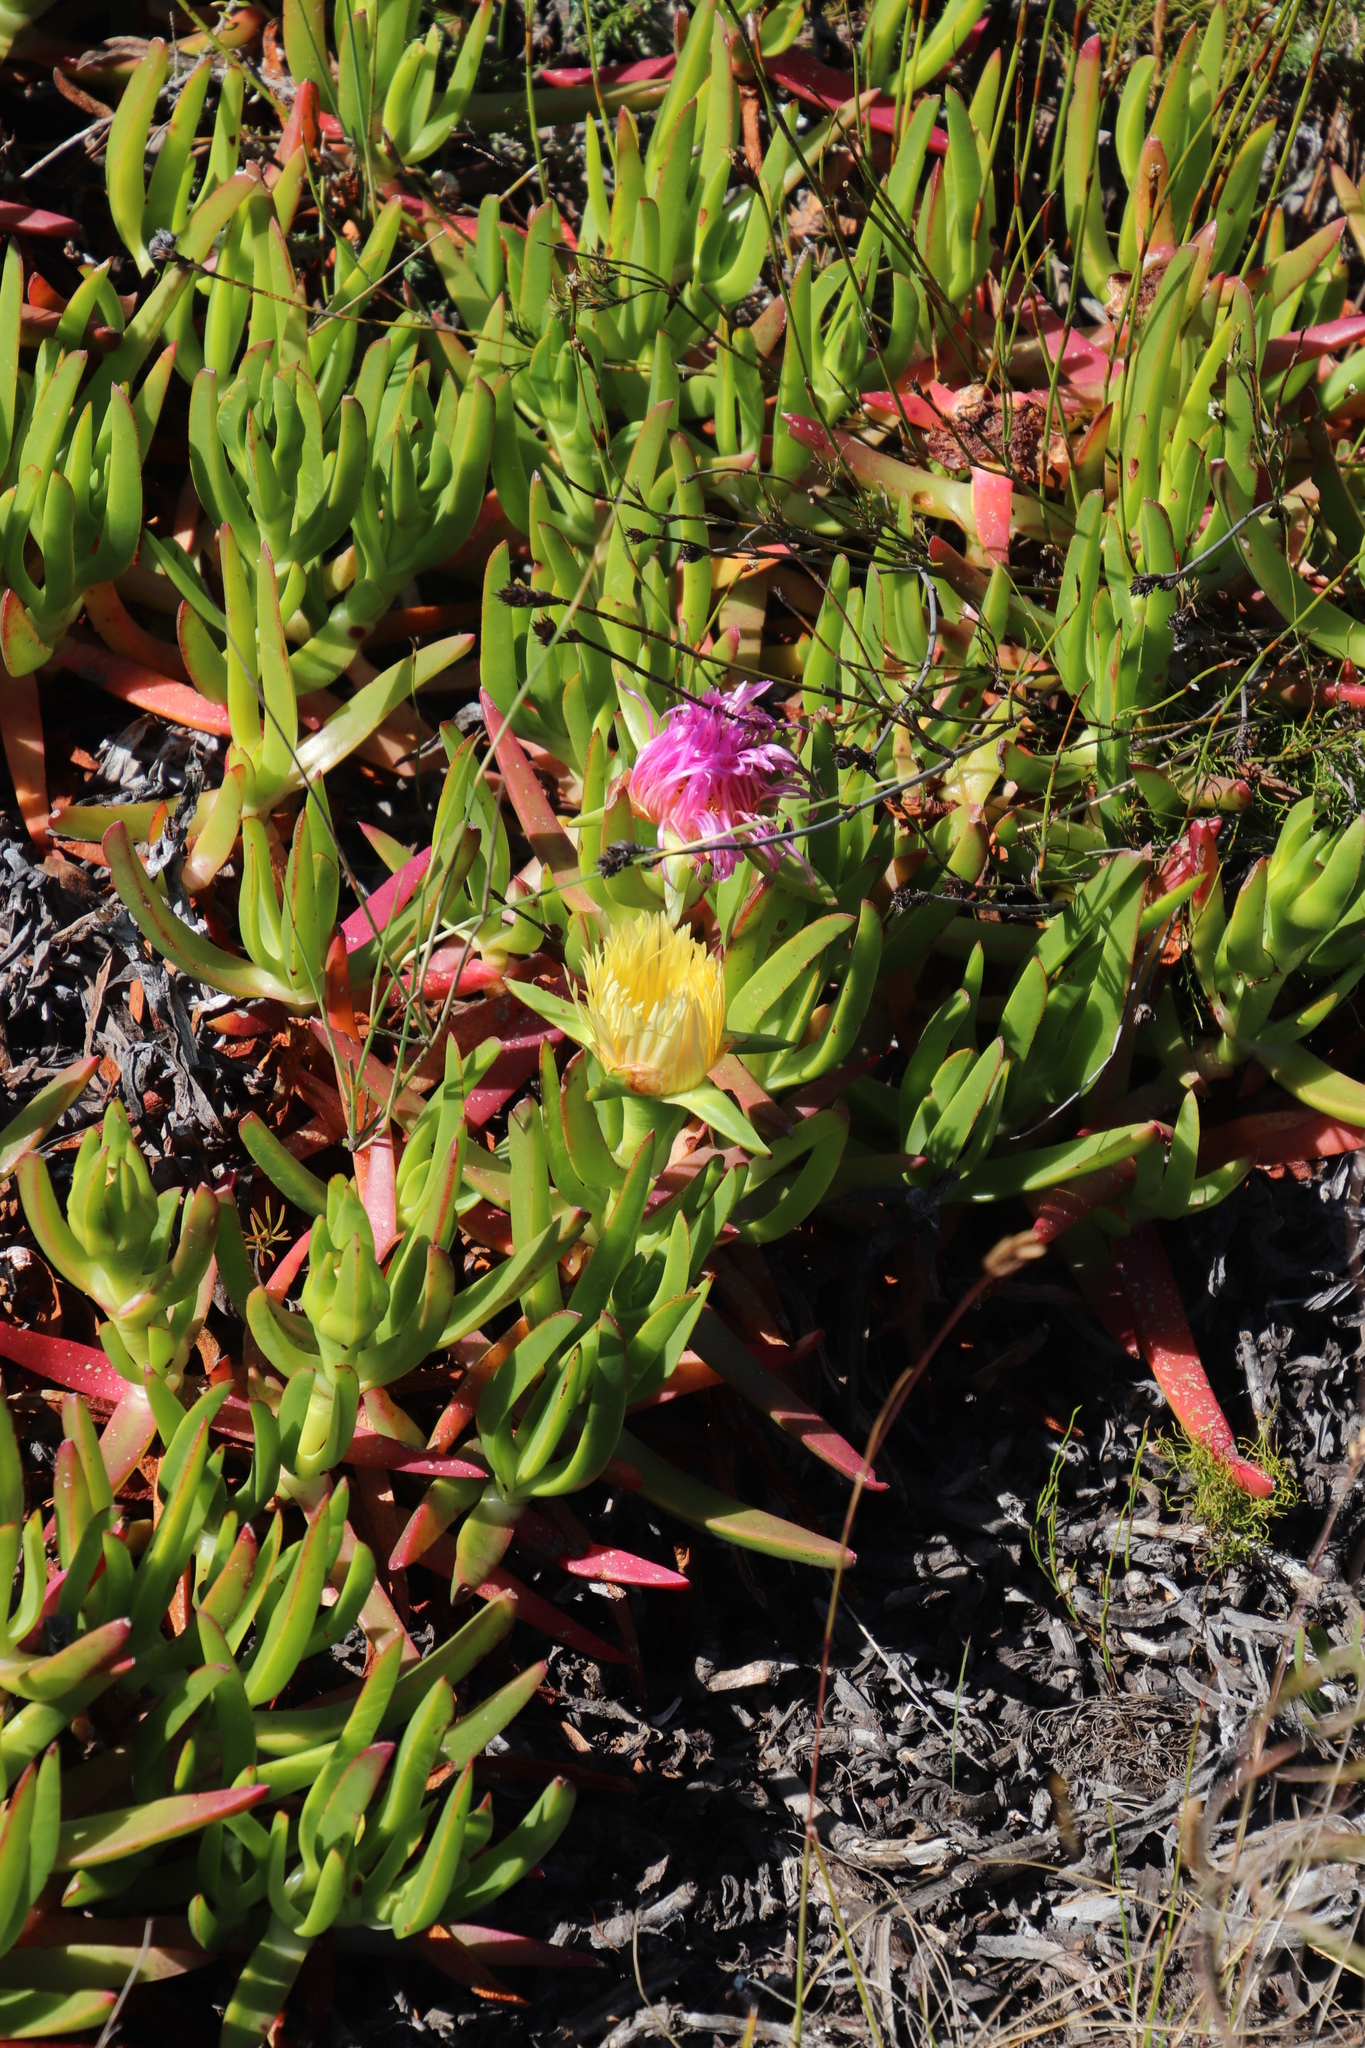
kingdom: Plantae
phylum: Tracheophyta
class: Magnoliopsida
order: Caryophyllales
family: Aizoaceae
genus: Carpobrotus
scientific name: Carpobrotus edulis
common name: Hottentot-fig
